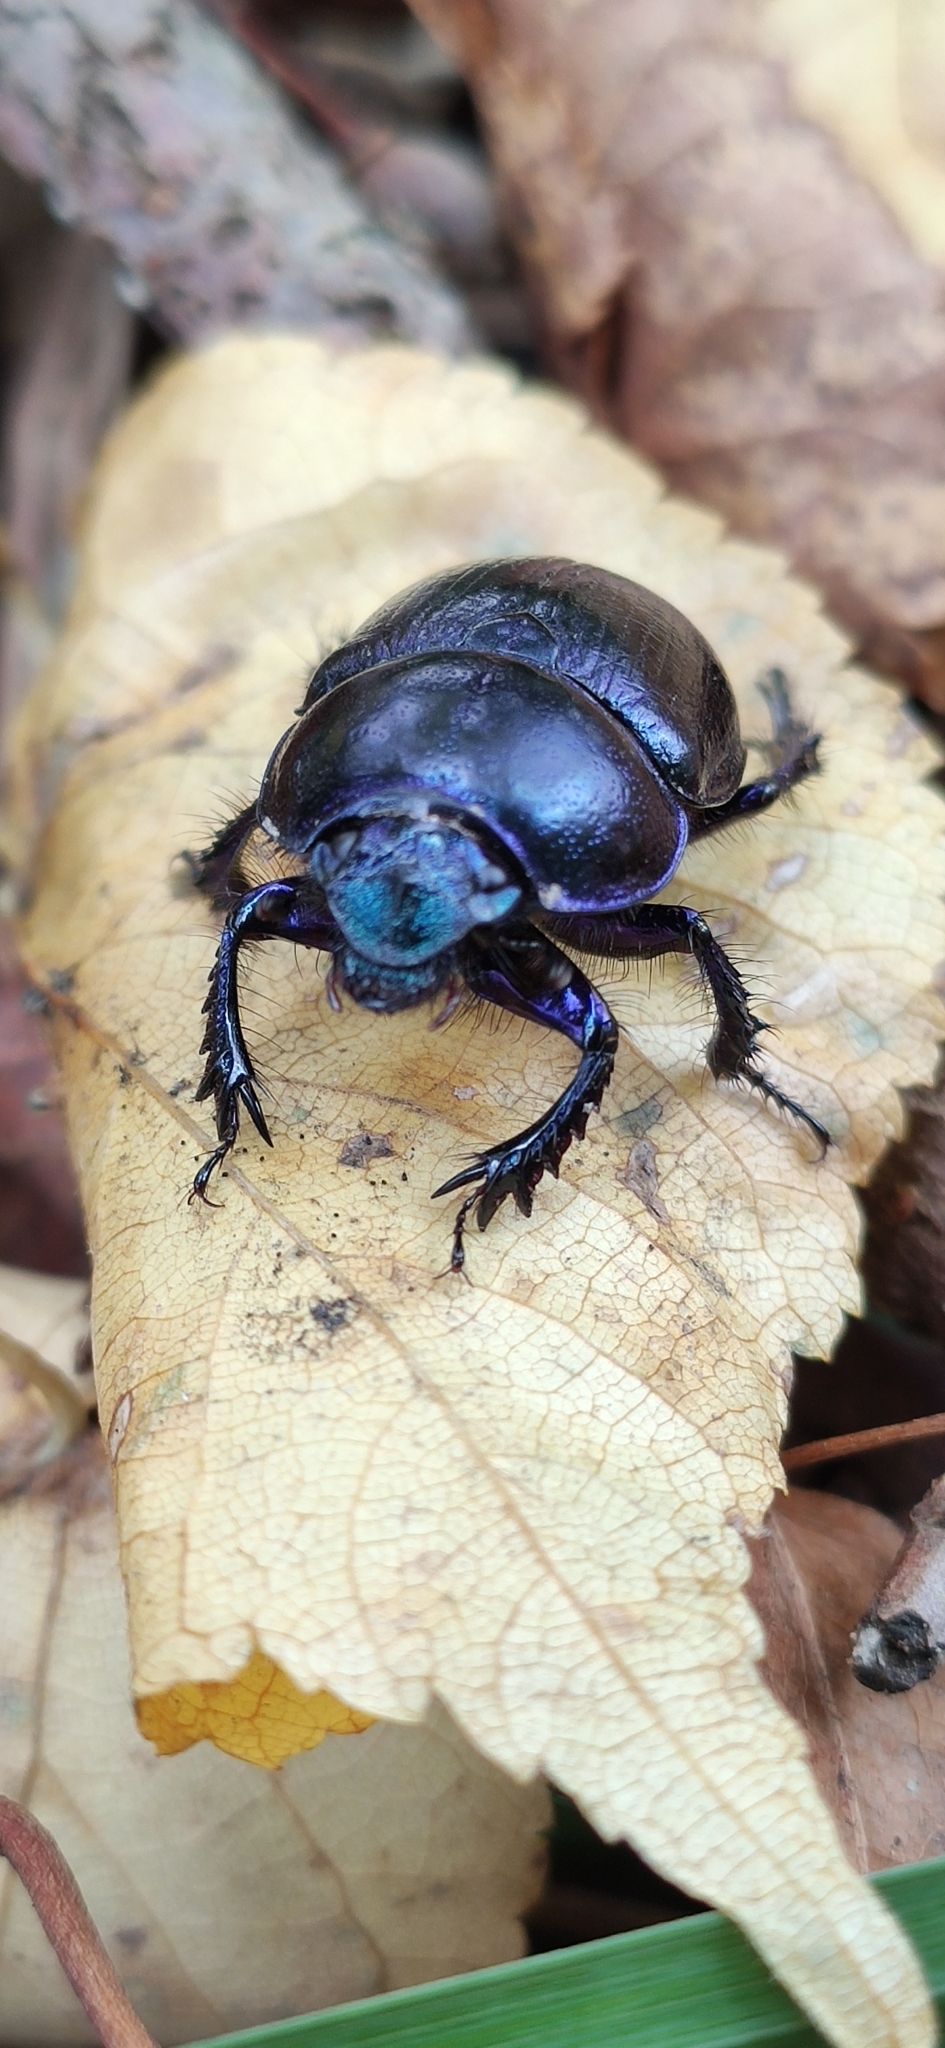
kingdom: Animalia
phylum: Arthropoda
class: Insecta
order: Coleoptera
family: Geotrupidae
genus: Anoplotrupes
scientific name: Anoplotrupes stercorosus
